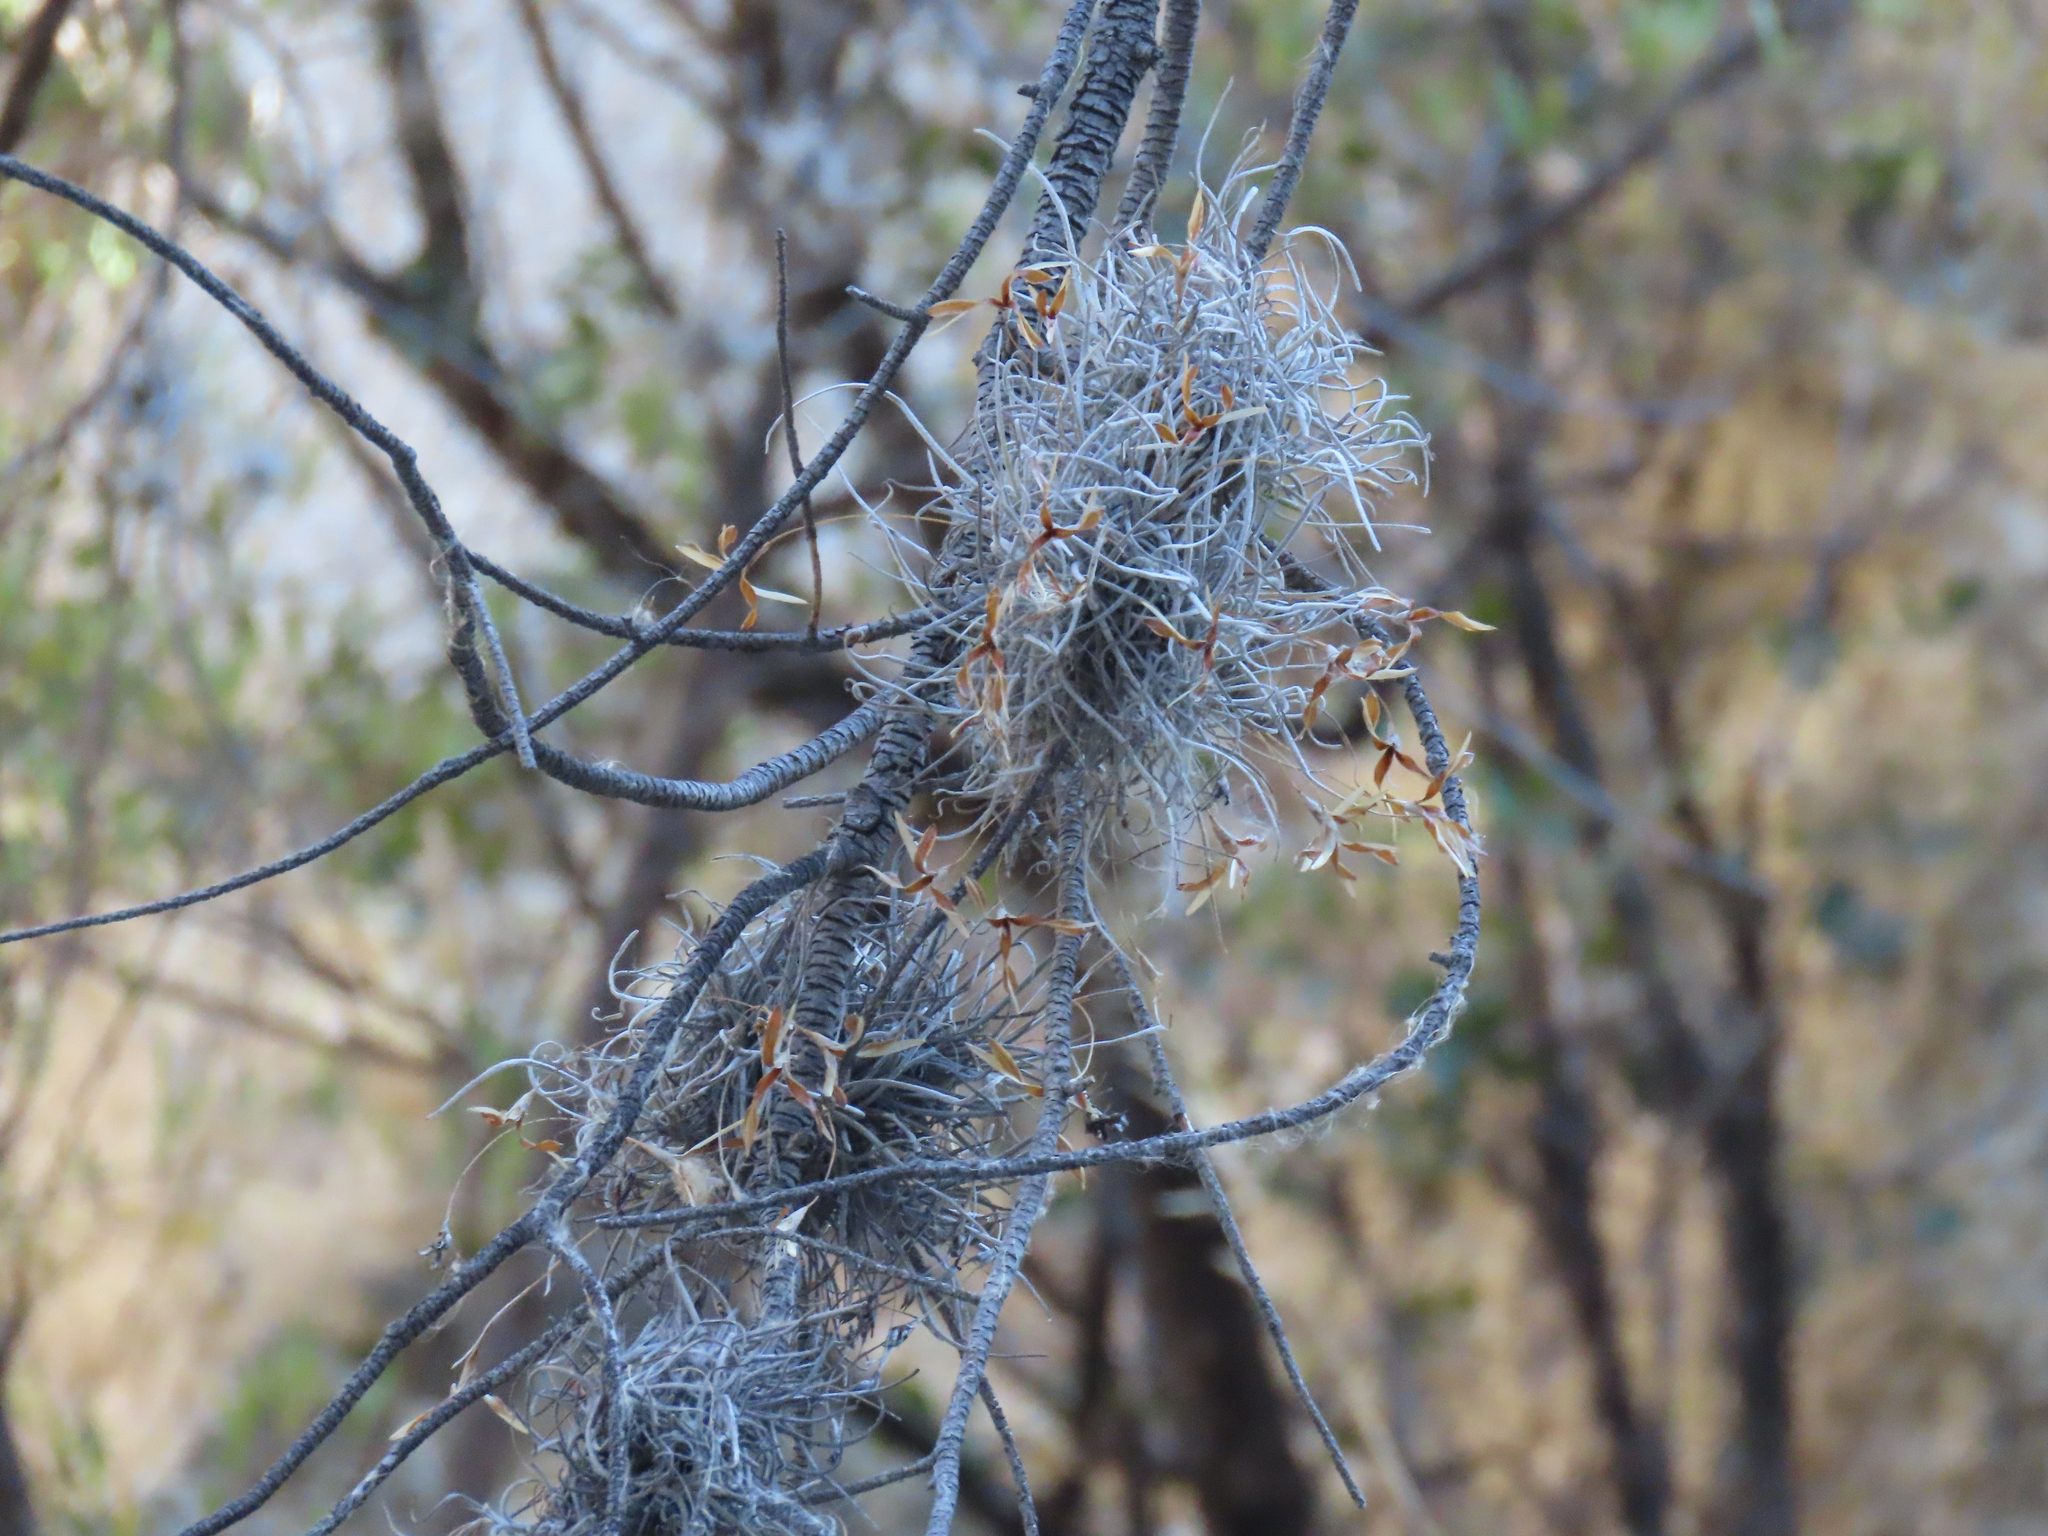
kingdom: Plantae
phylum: Tracheophyta
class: Liliopsida
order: Poales
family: Bromeliaceae
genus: Tillandsia
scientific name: Tillandsia recurvata
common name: Small ballmoss
